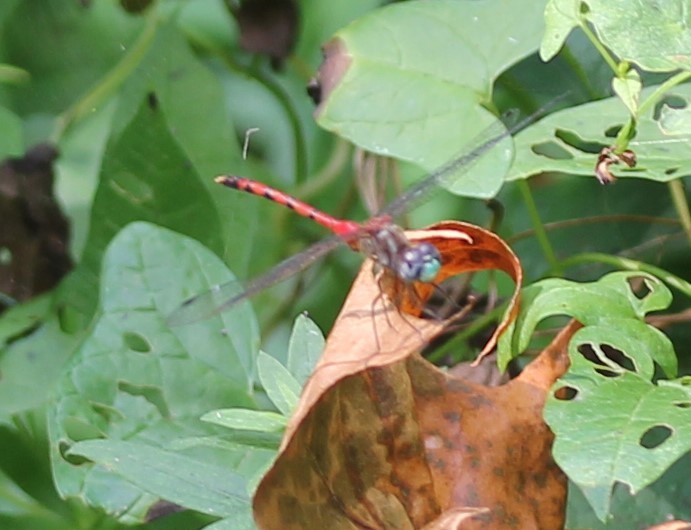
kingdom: Animalia
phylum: Arthropoda
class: Insecta
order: Odonata
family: Libellulidae
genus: Sympetrum
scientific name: Sympetrum ambiguum
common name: Blue-faced meadowhawk
